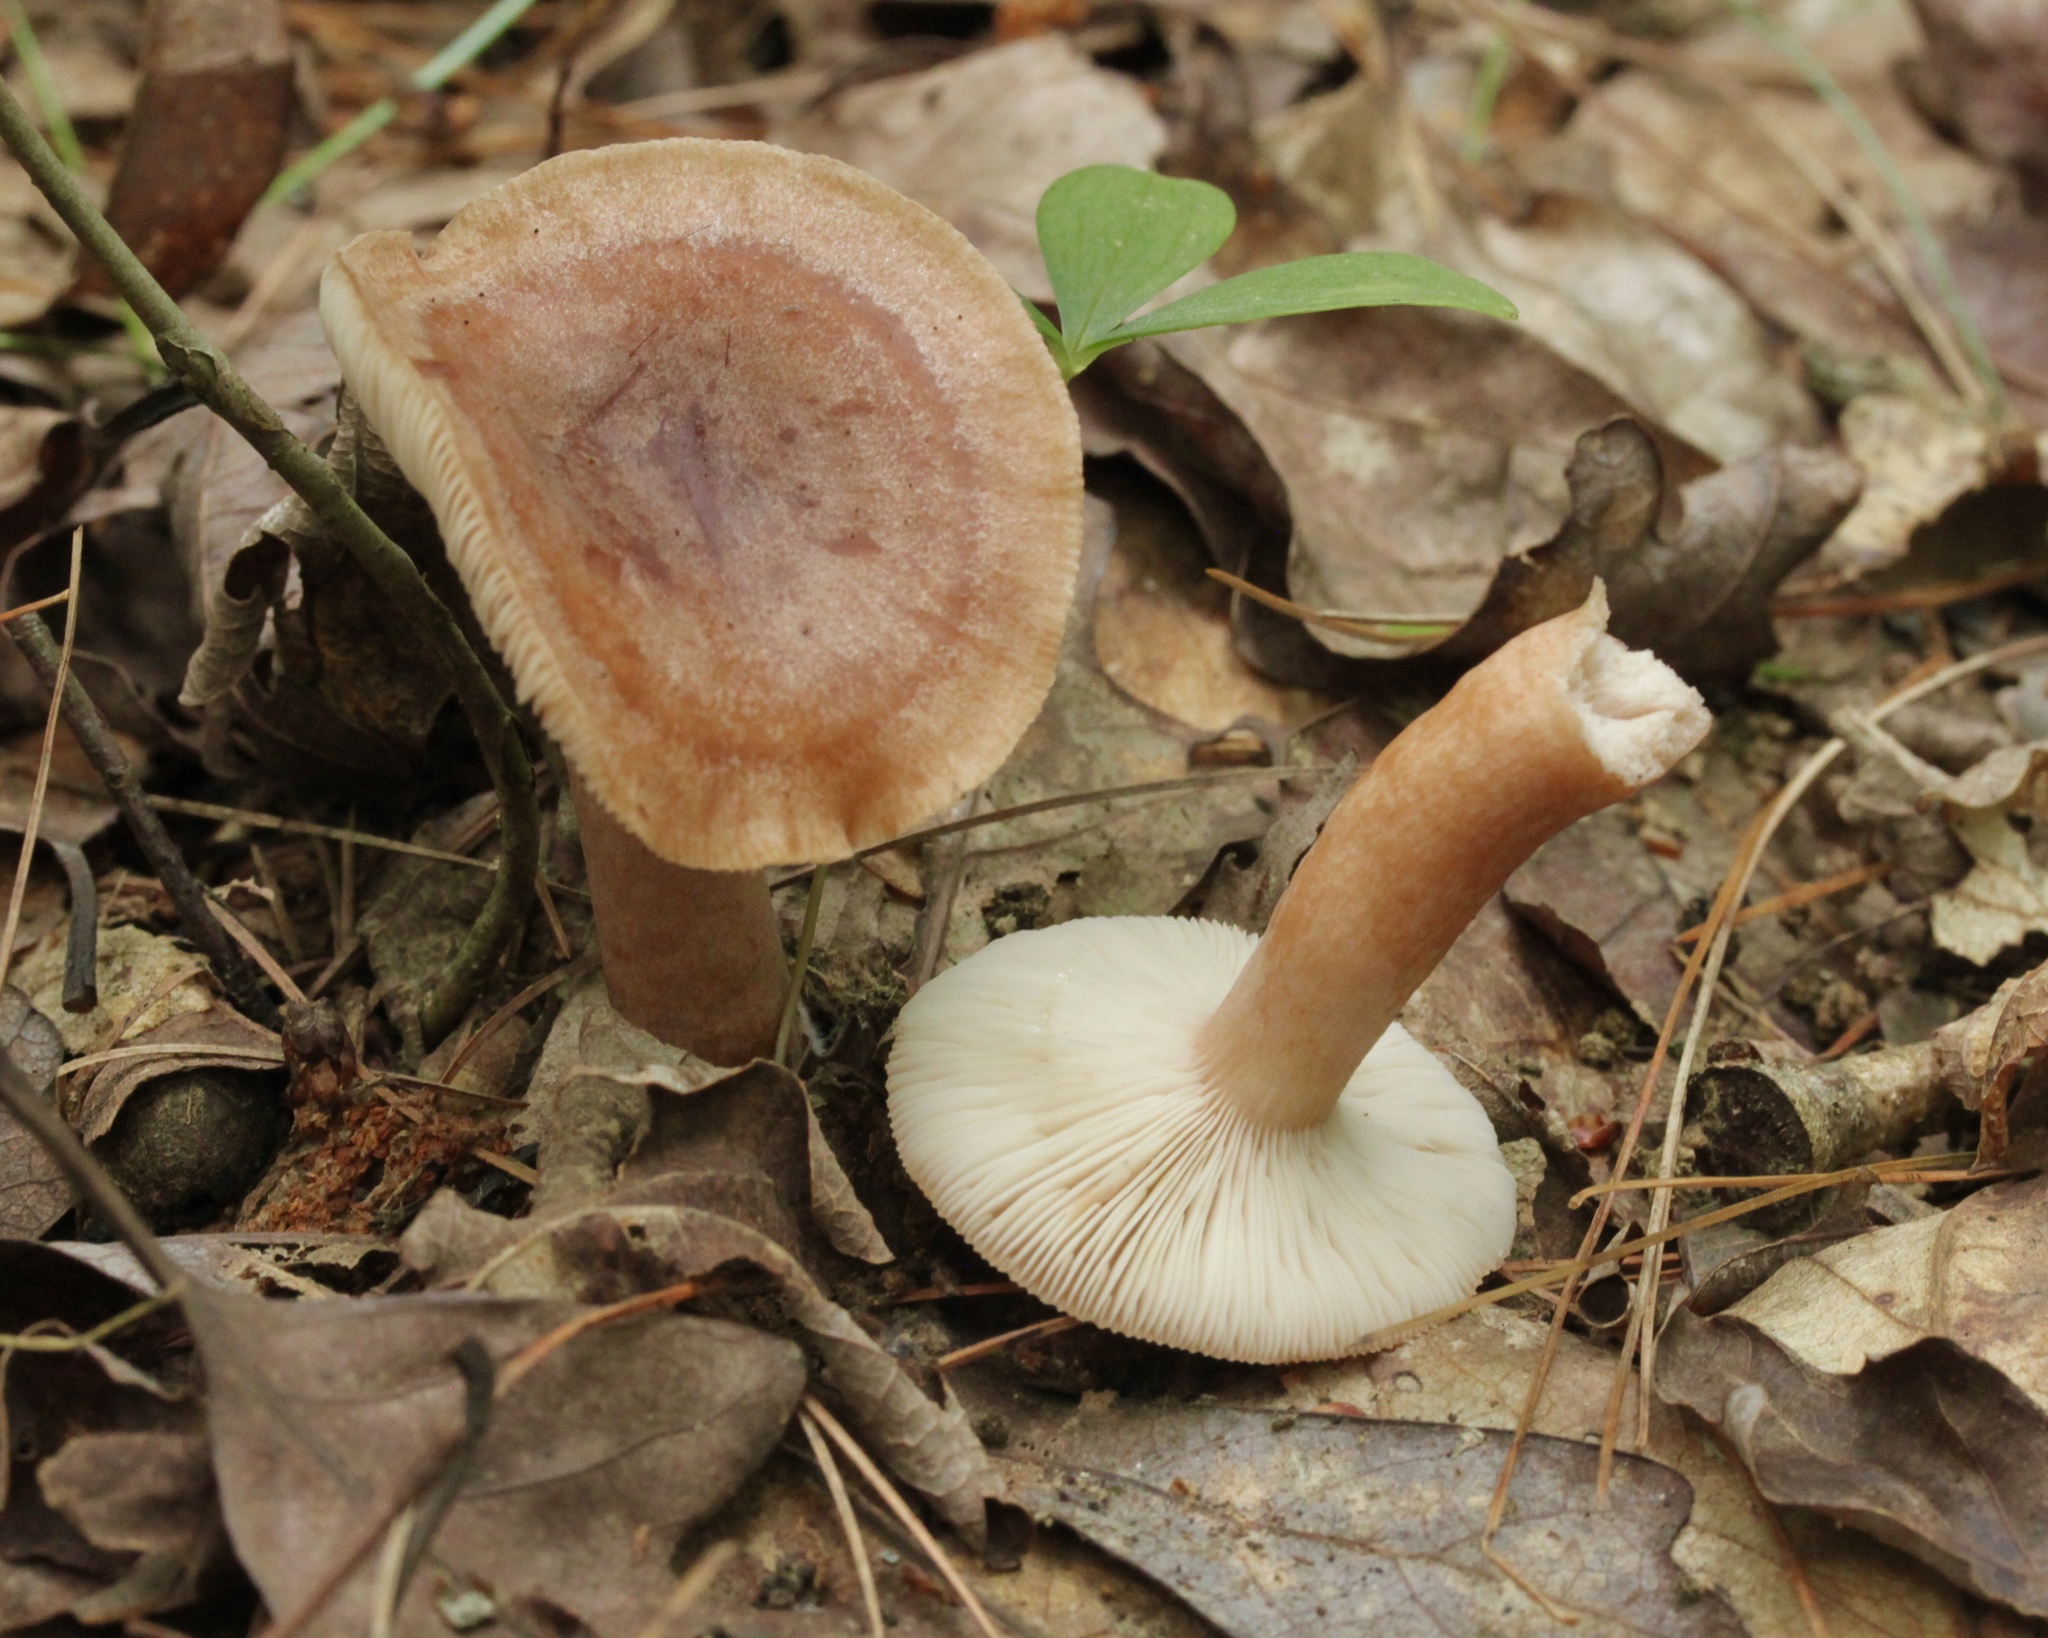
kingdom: Fungi
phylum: Basidiomycota
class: Agaricomycetes
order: Russulales
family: Russulaceae
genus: Lactarius
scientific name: Lactarius quietus
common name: Oak milk-cap
